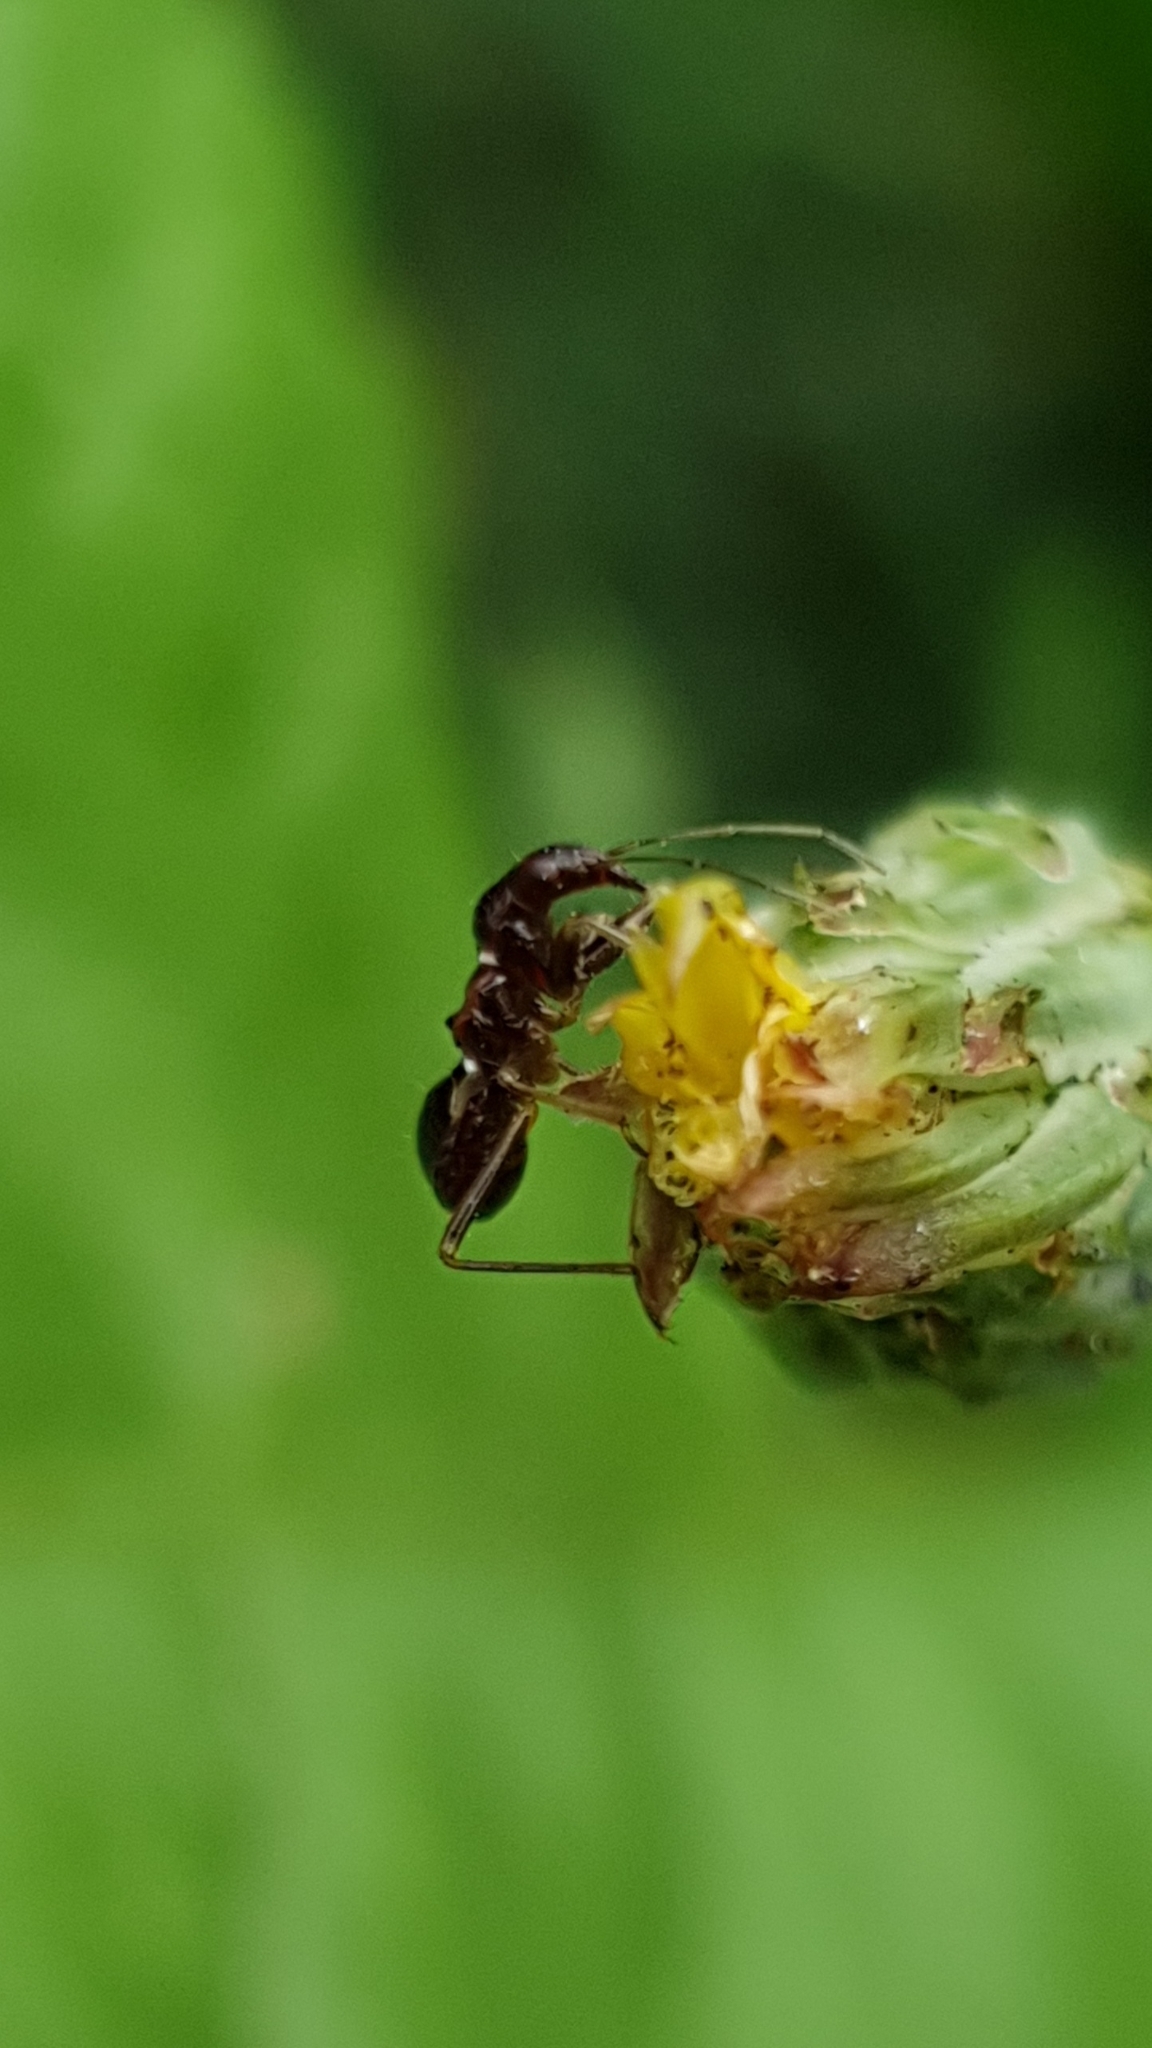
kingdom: Animalia
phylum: Arthropoda
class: Insecta
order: Hemiptera
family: Nabidae
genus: Himacerus
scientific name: Himacerus mirmicoides
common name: Ant damsel bug
